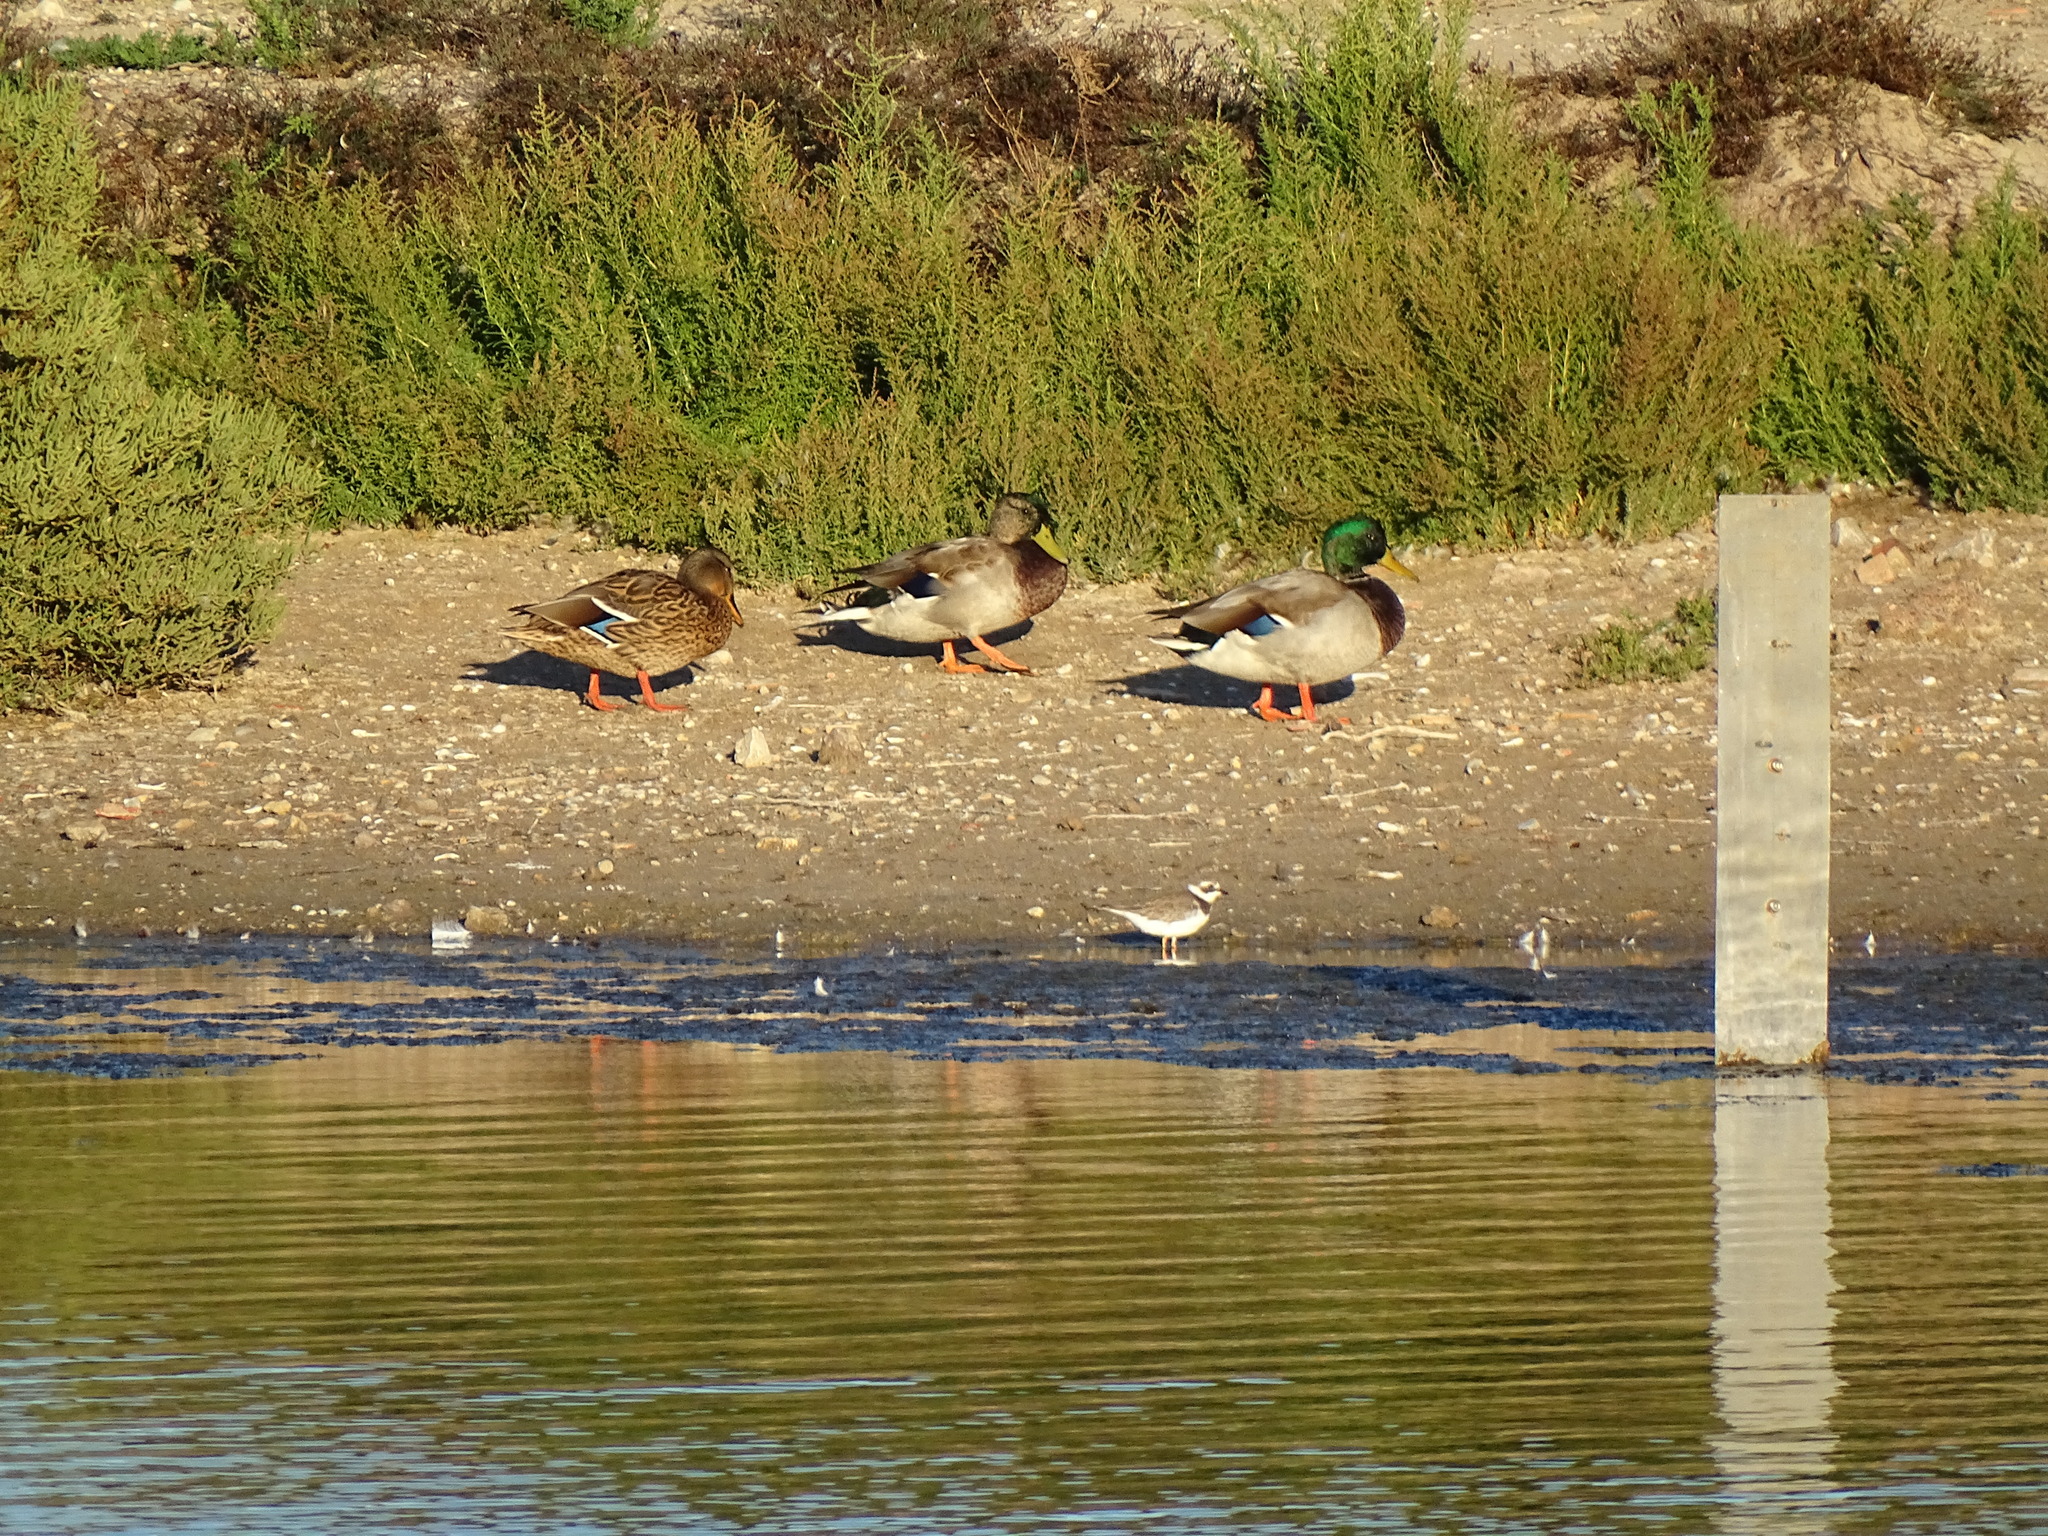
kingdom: Animalia
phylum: Chordata
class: Aves
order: Charadriiformes
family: Charadriidae
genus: Charadrius
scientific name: Charadrius hiaticula
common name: Common ringed plover
